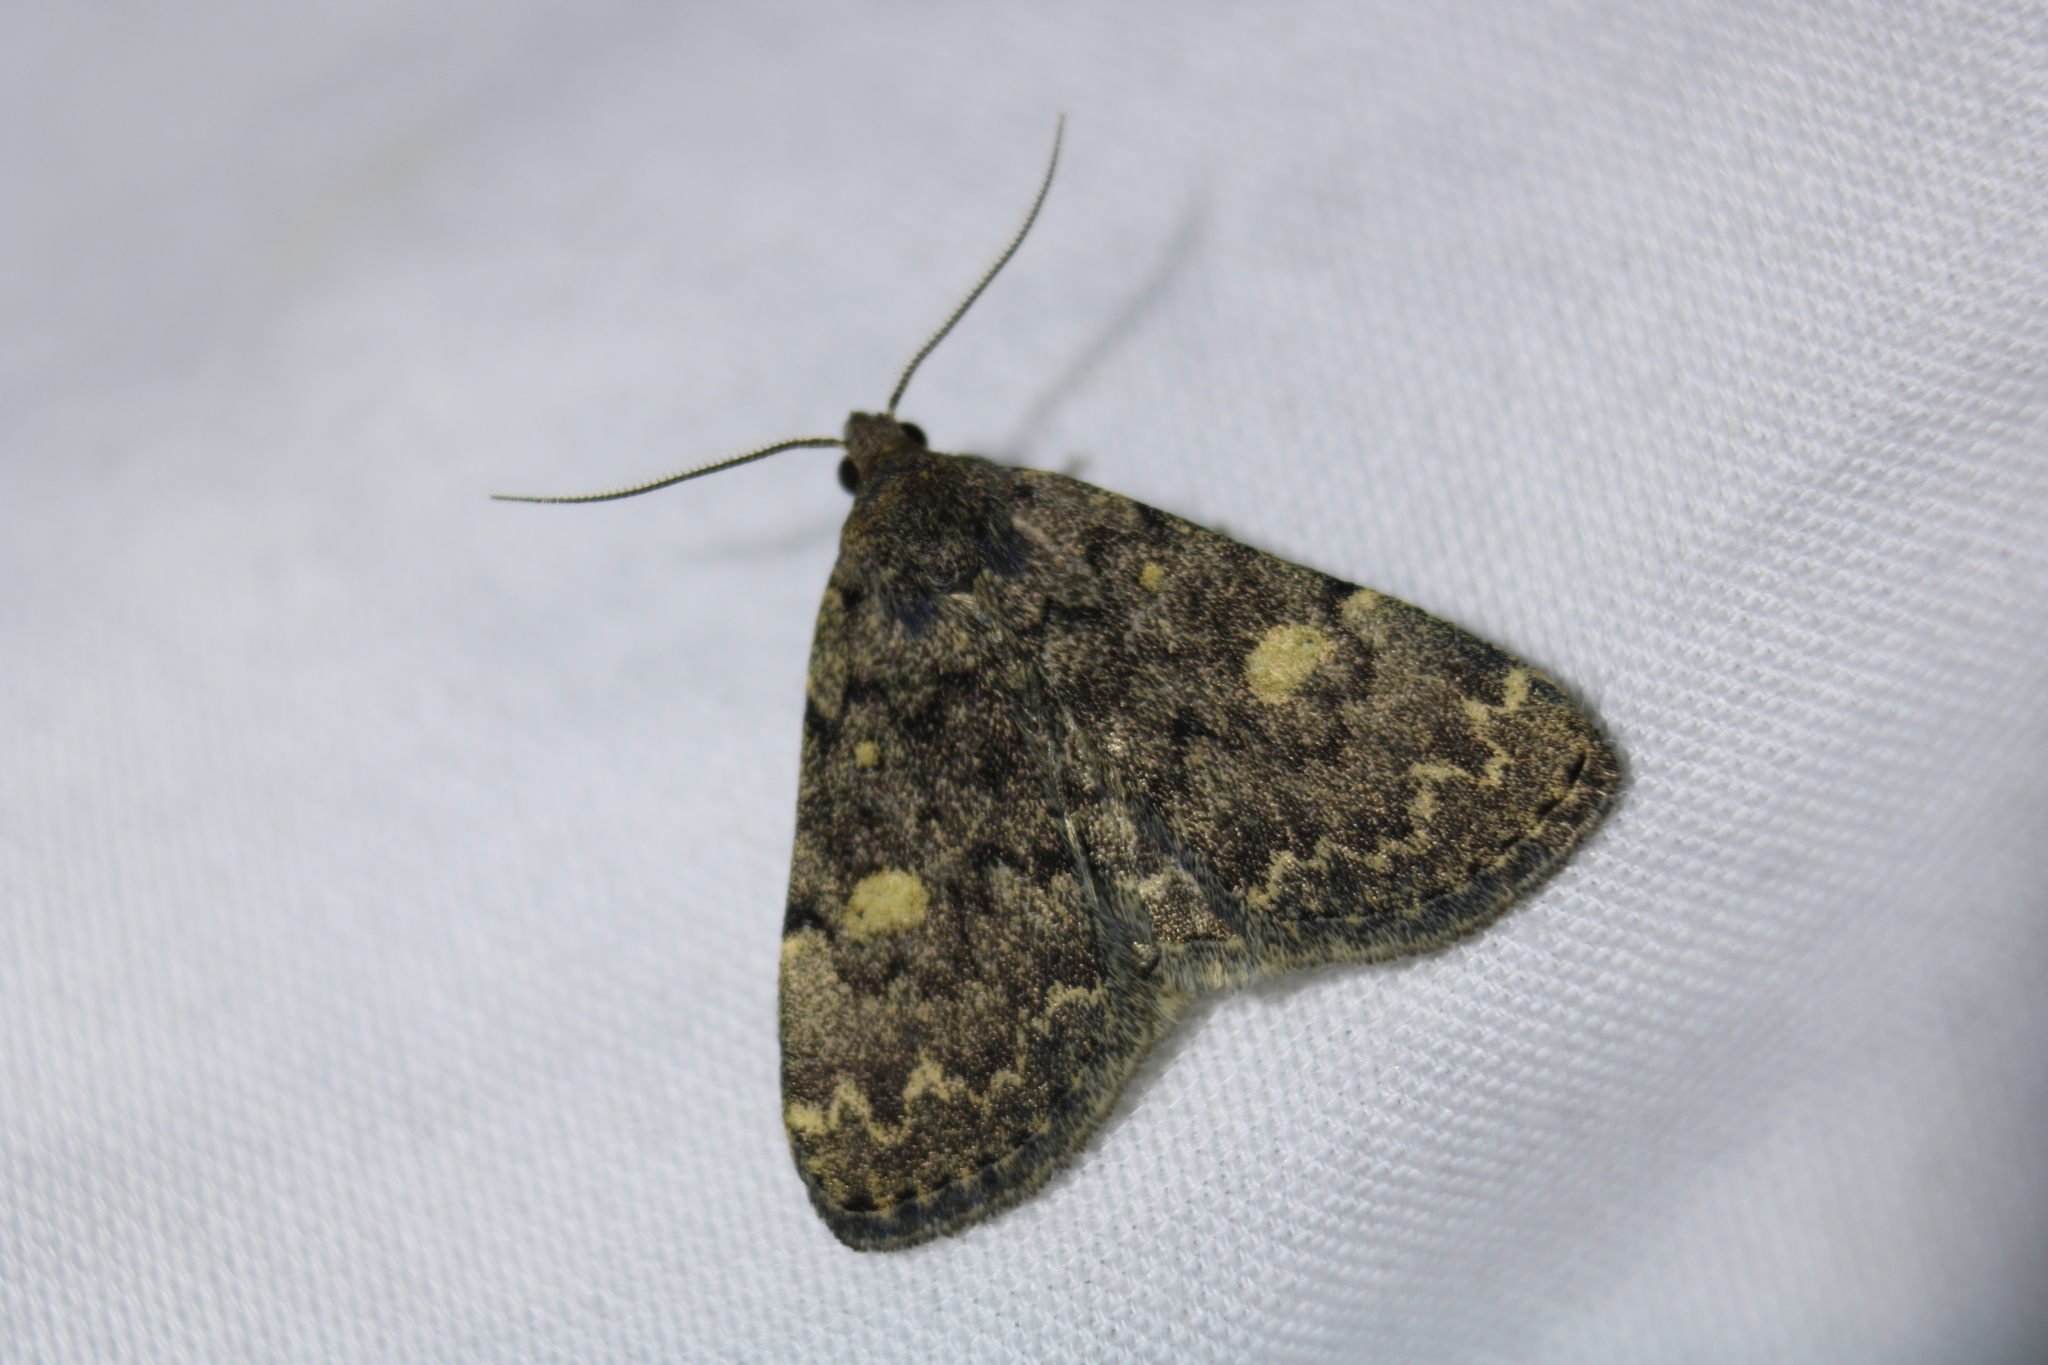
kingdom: Animalia
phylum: Arthropoda
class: Insecta
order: Lepidoptera
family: Erebidae
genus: Idia
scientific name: Idia aemula
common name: Common idia moth
